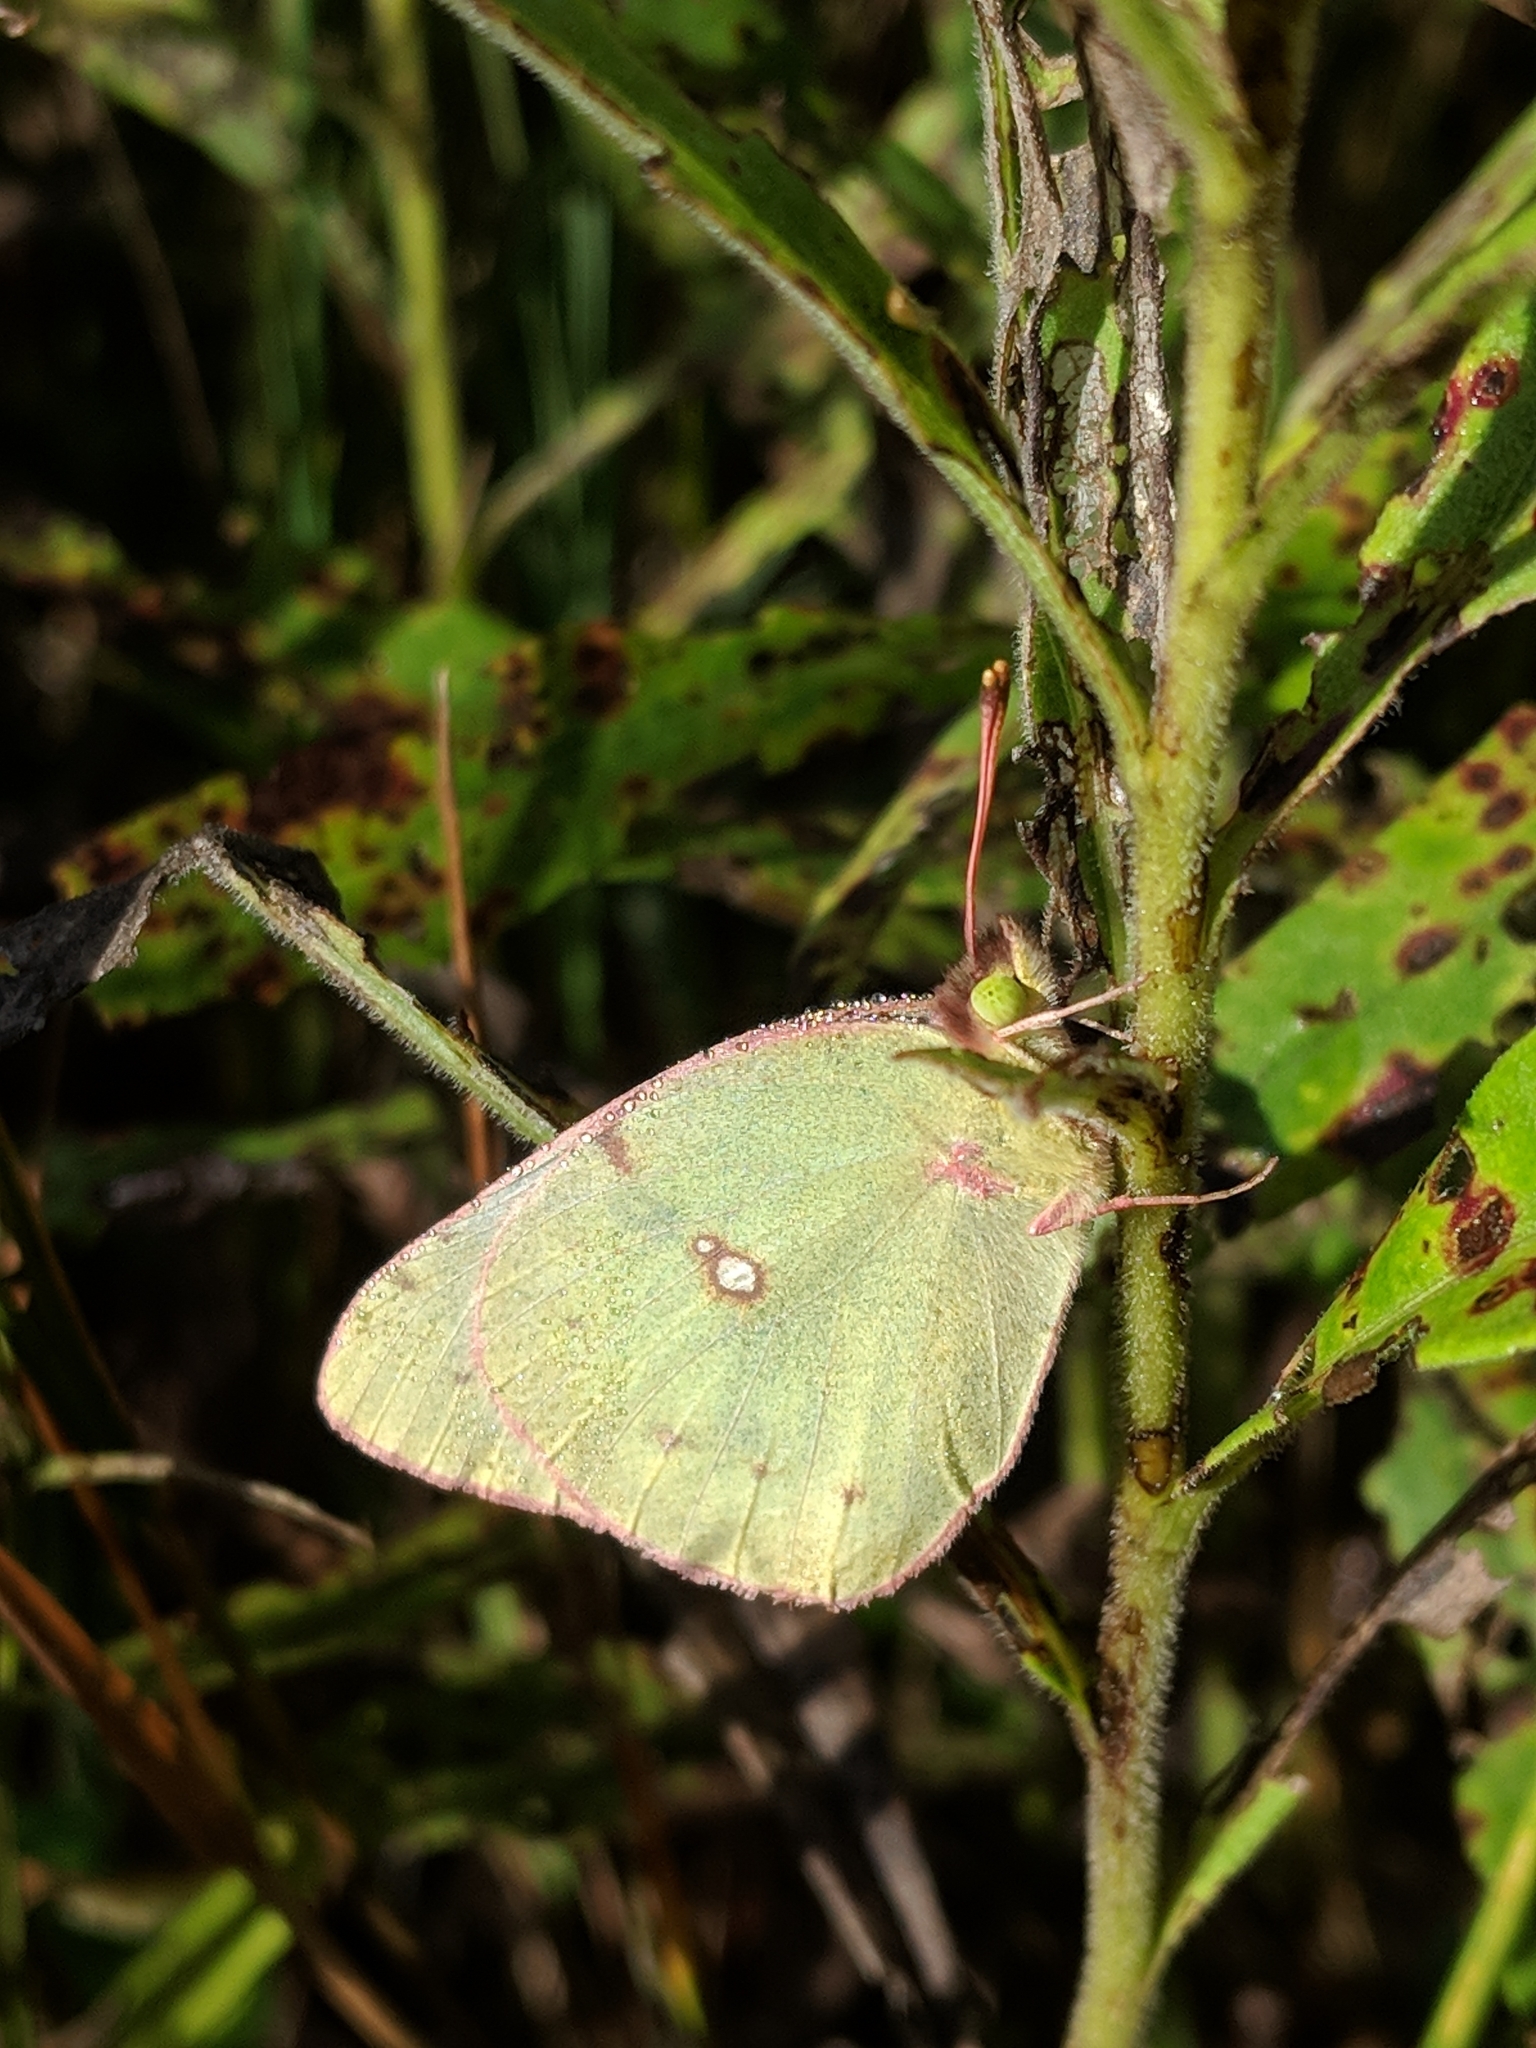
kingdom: Animalia
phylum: Arthropoda
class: Insecta
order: Lepidoptera
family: Pieridae
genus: Colias
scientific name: Colias philodice
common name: Clouded sulphur
